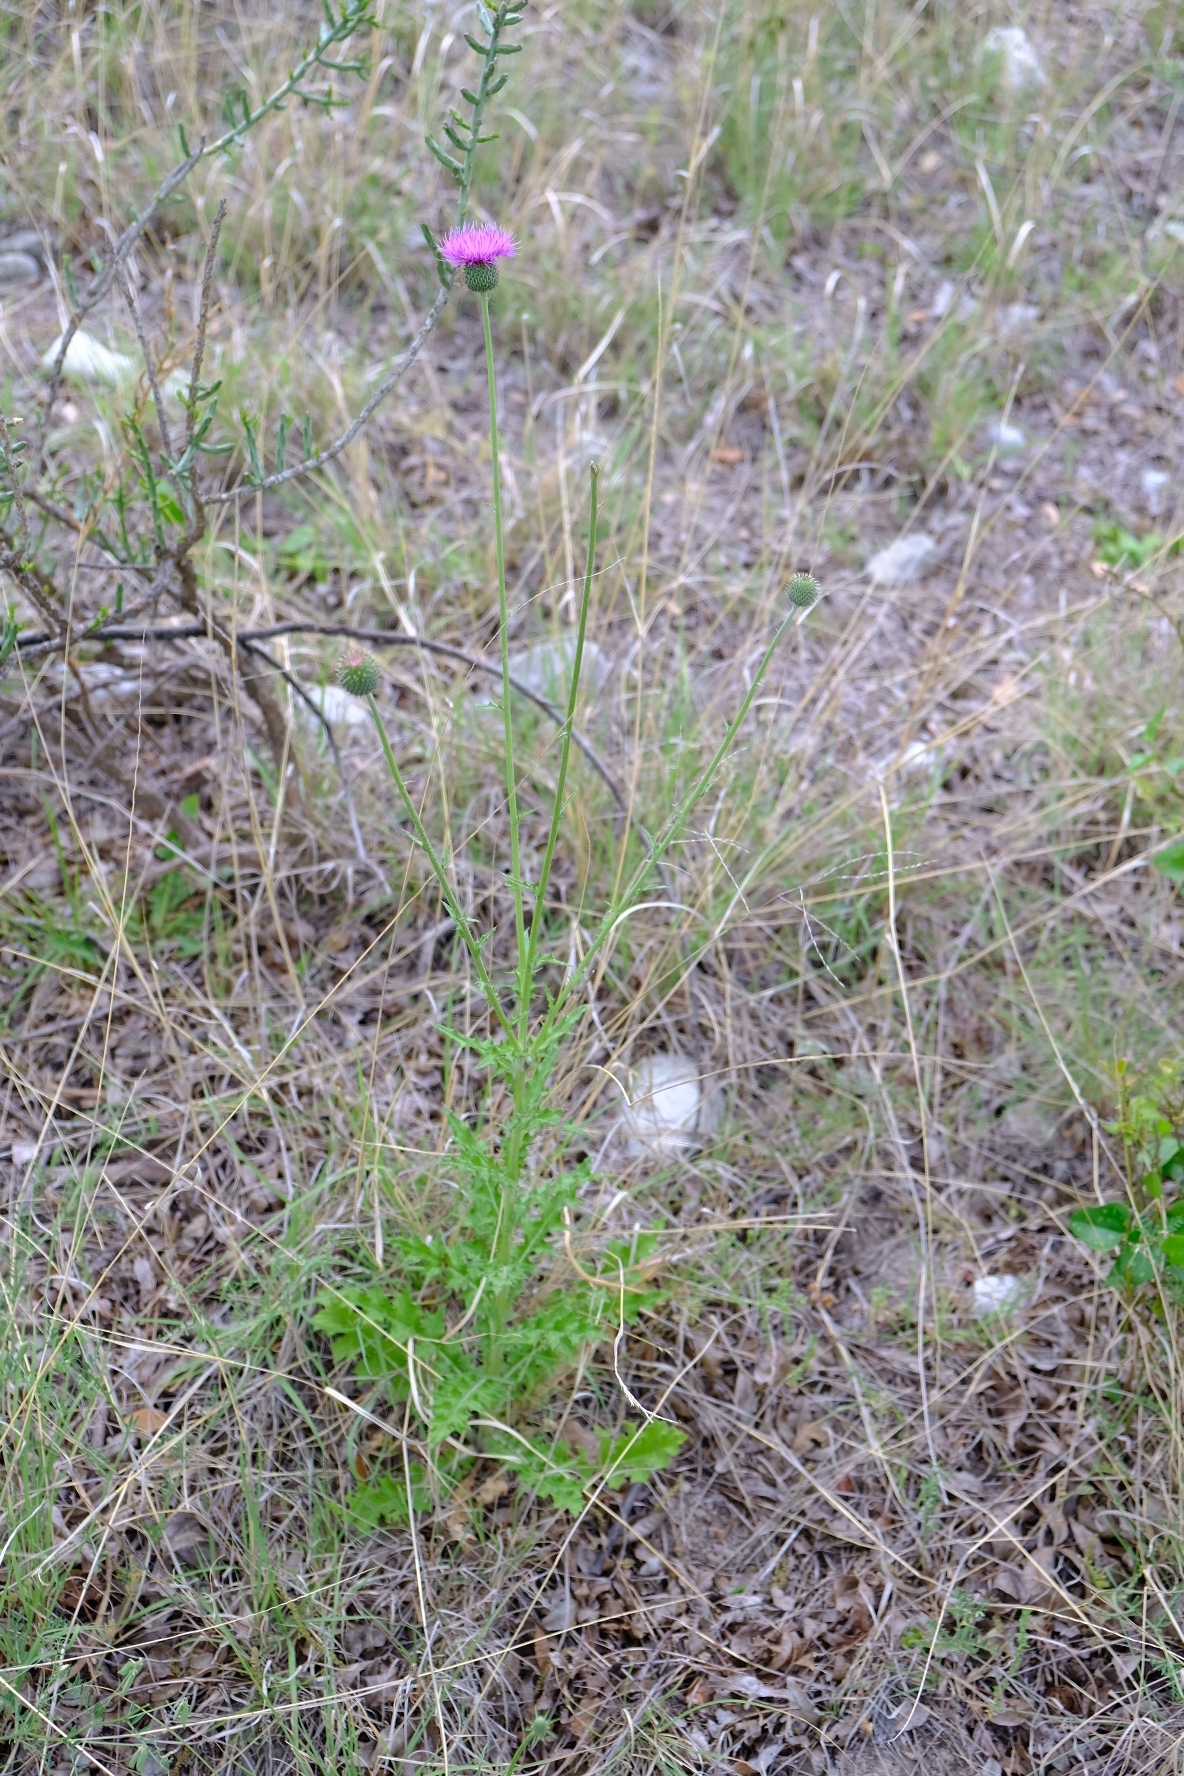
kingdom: Plantae
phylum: Tracheophyta
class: Magnoliopsida
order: Asterales
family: Asteraceae
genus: Cirsium
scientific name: Cirsium texanum
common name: Texas purple thistle
